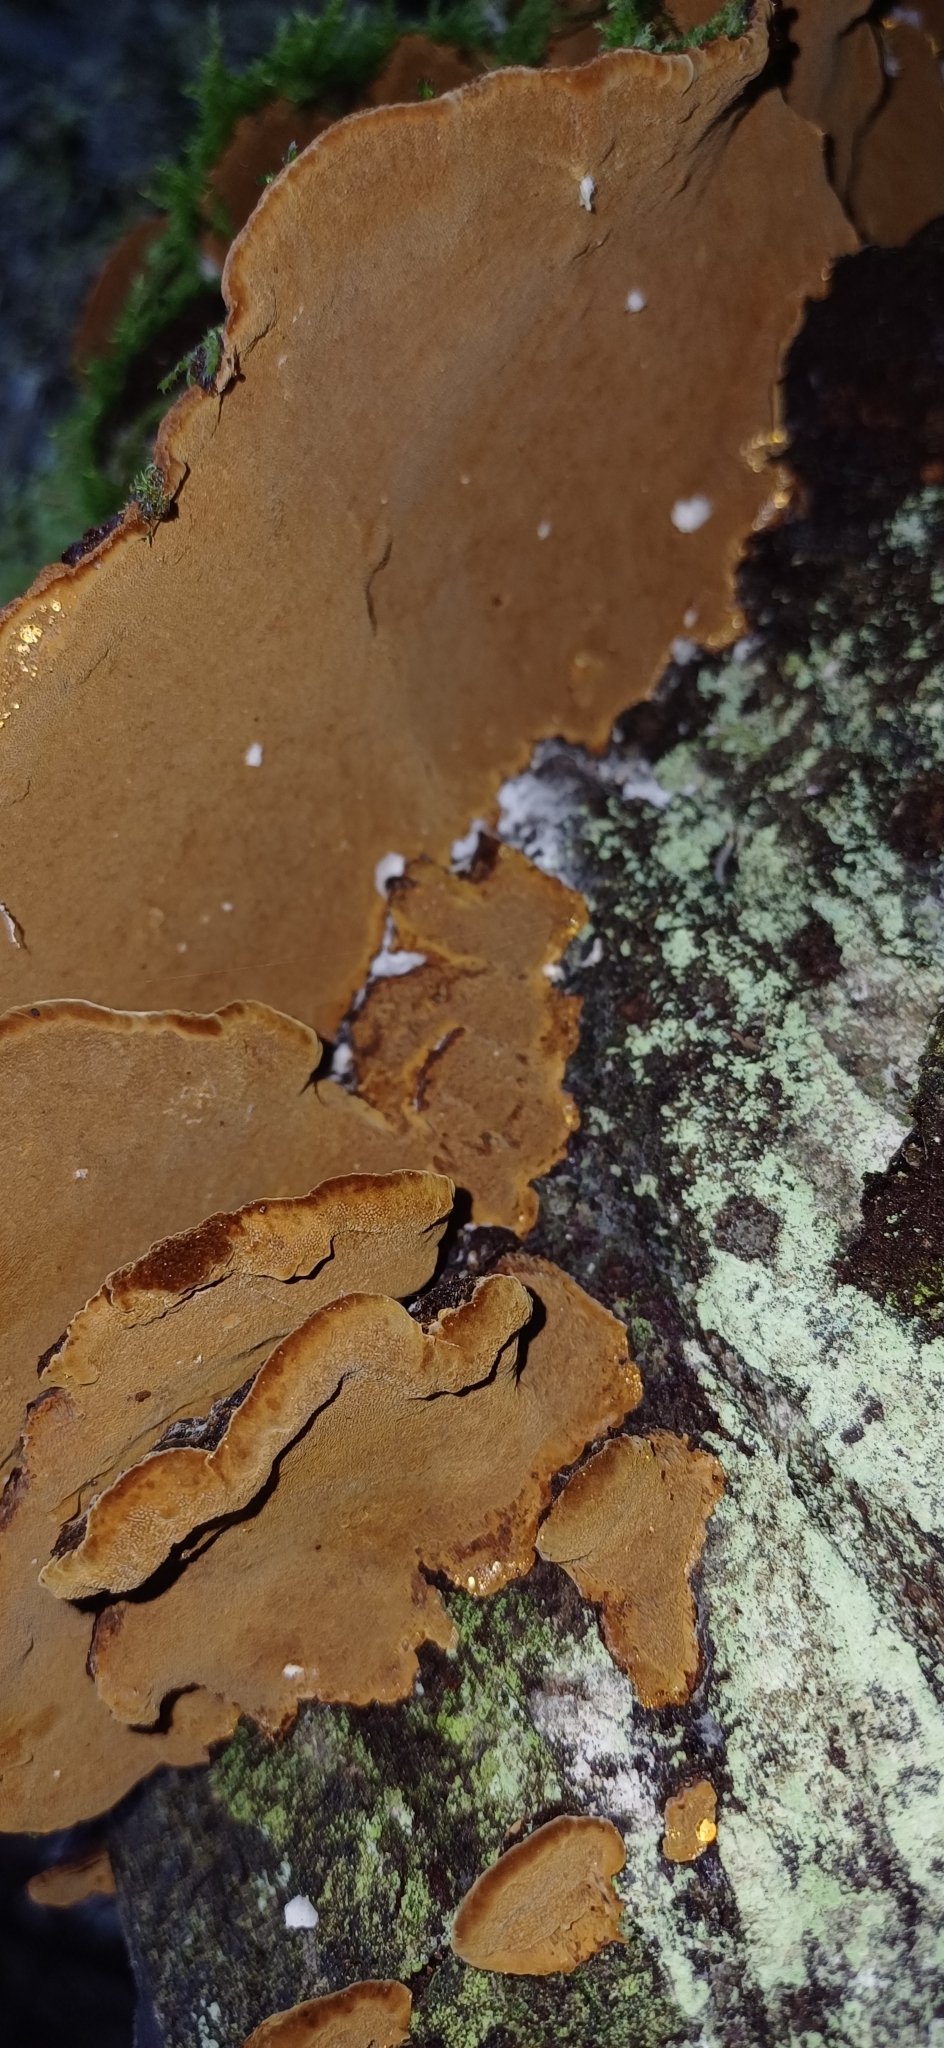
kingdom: Fungi
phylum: Basidiomycota
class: Agaricomycetes
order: Hymenochaetales
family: Hymenochaetaceae
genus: Phellinopsis
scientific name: Phellinopsis conchata
